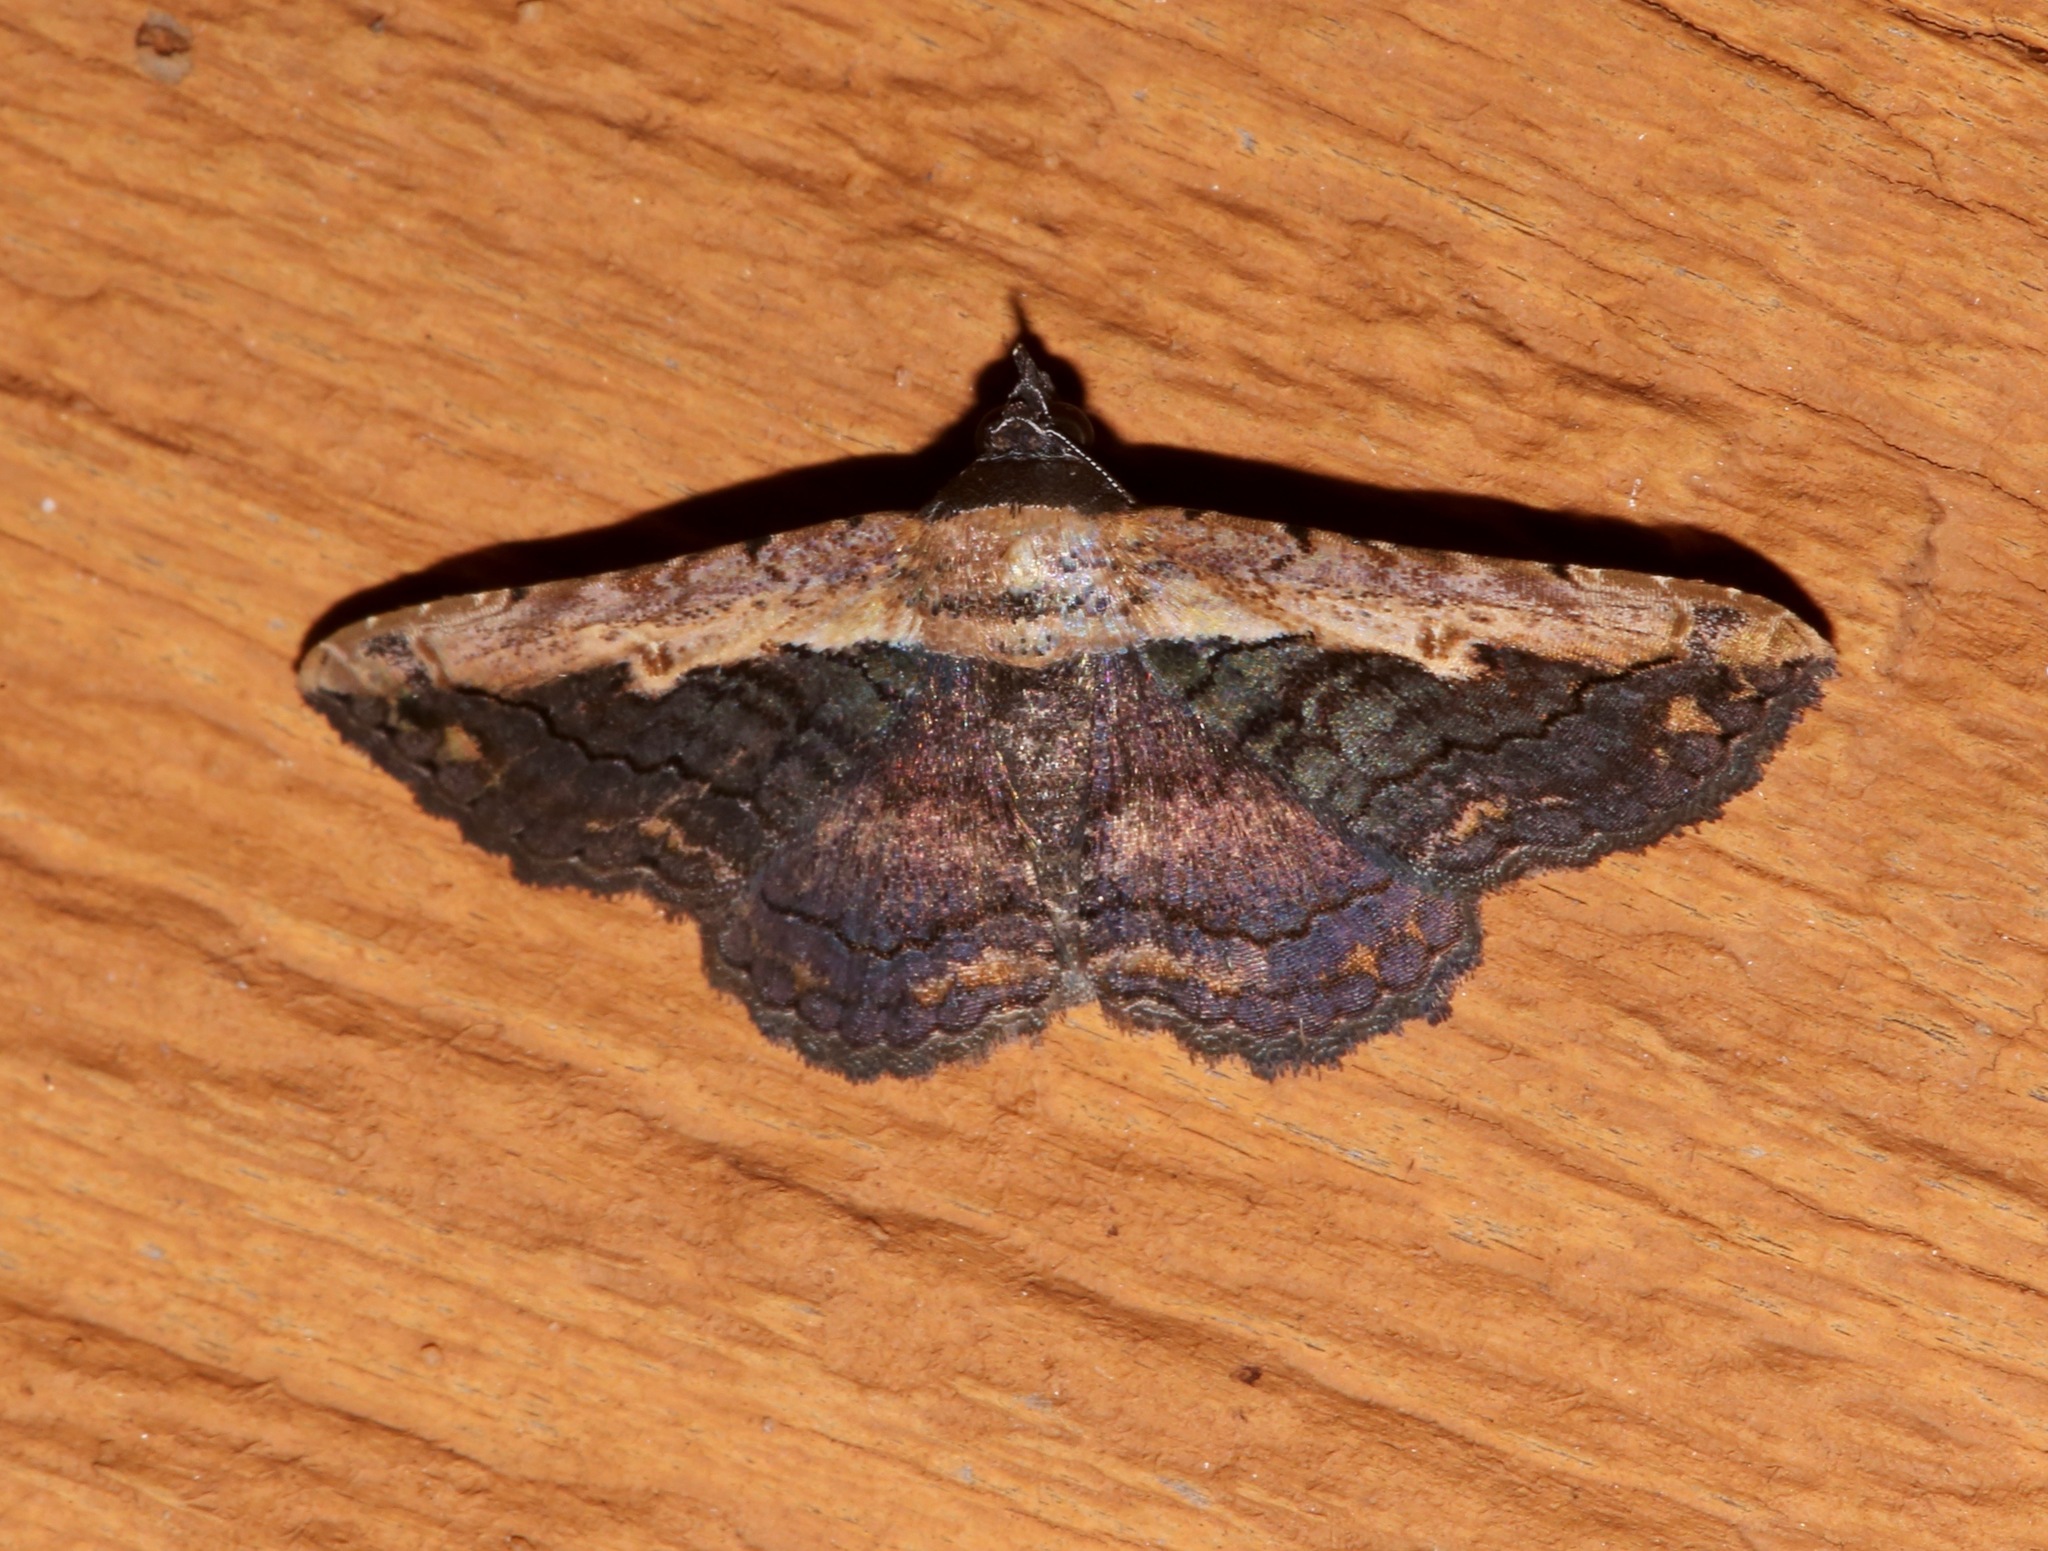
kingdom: Animalia
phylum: Arthropoda
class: Insecta
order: Lepidoptera
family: Erebidae
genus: Selenisa
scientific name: Selenisa sueroides
